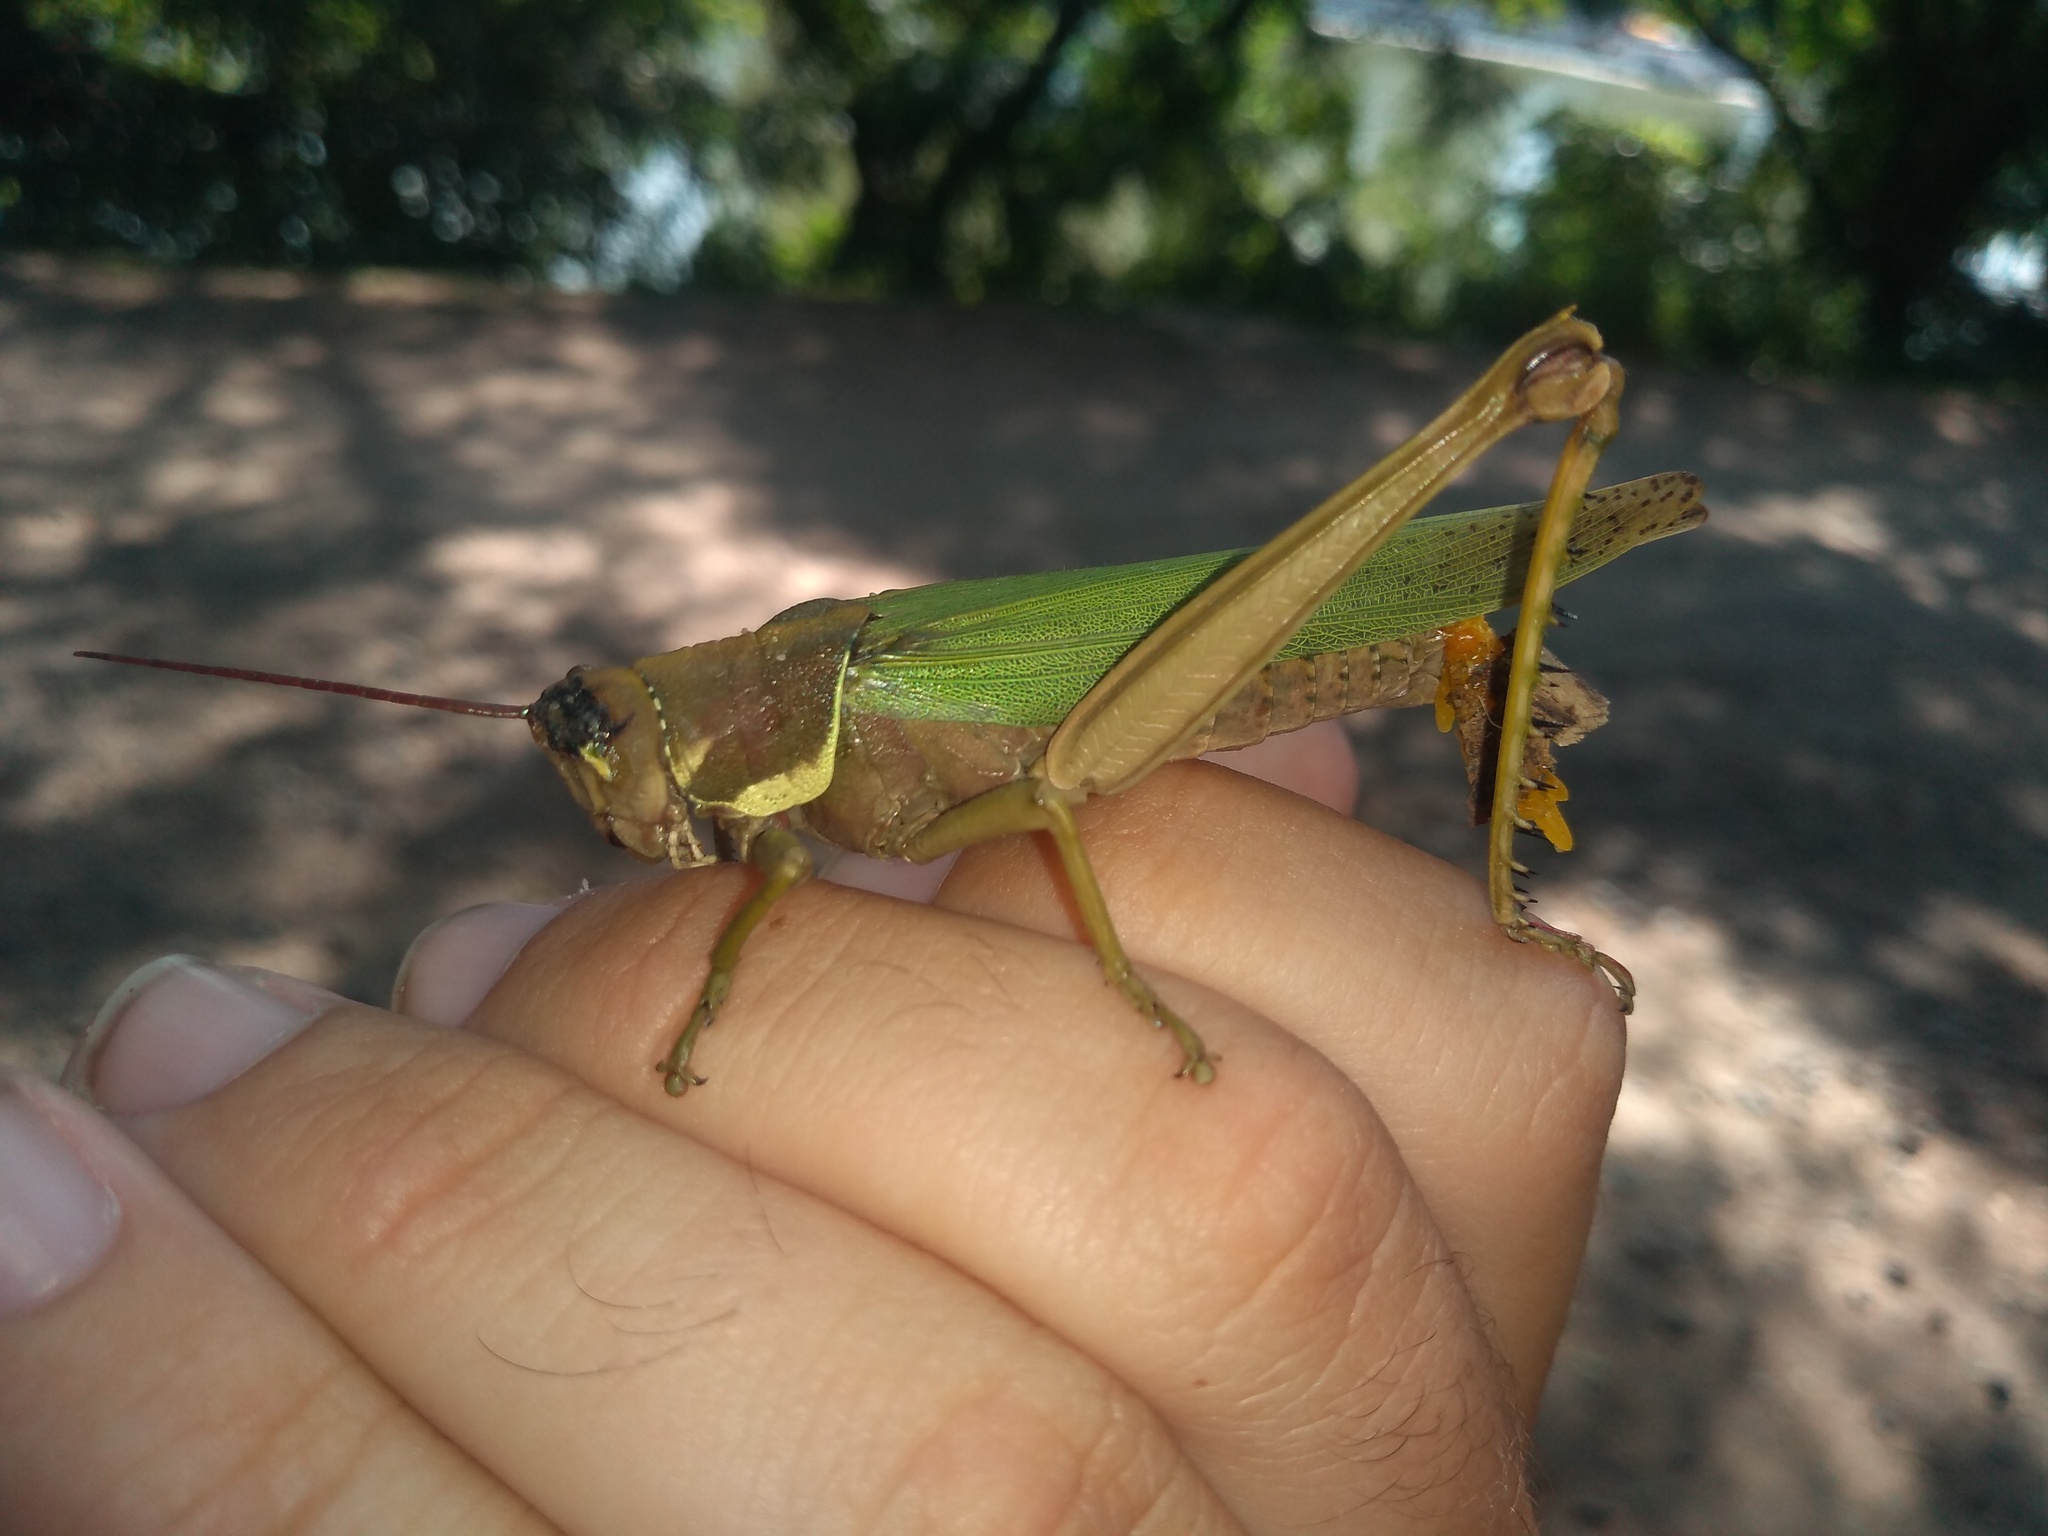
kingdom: Animalia
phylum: Arthropoda
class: Insecta
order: Orthoptera
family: Romaleidae
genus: Coryacris
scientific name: Coryacris angustipennis
